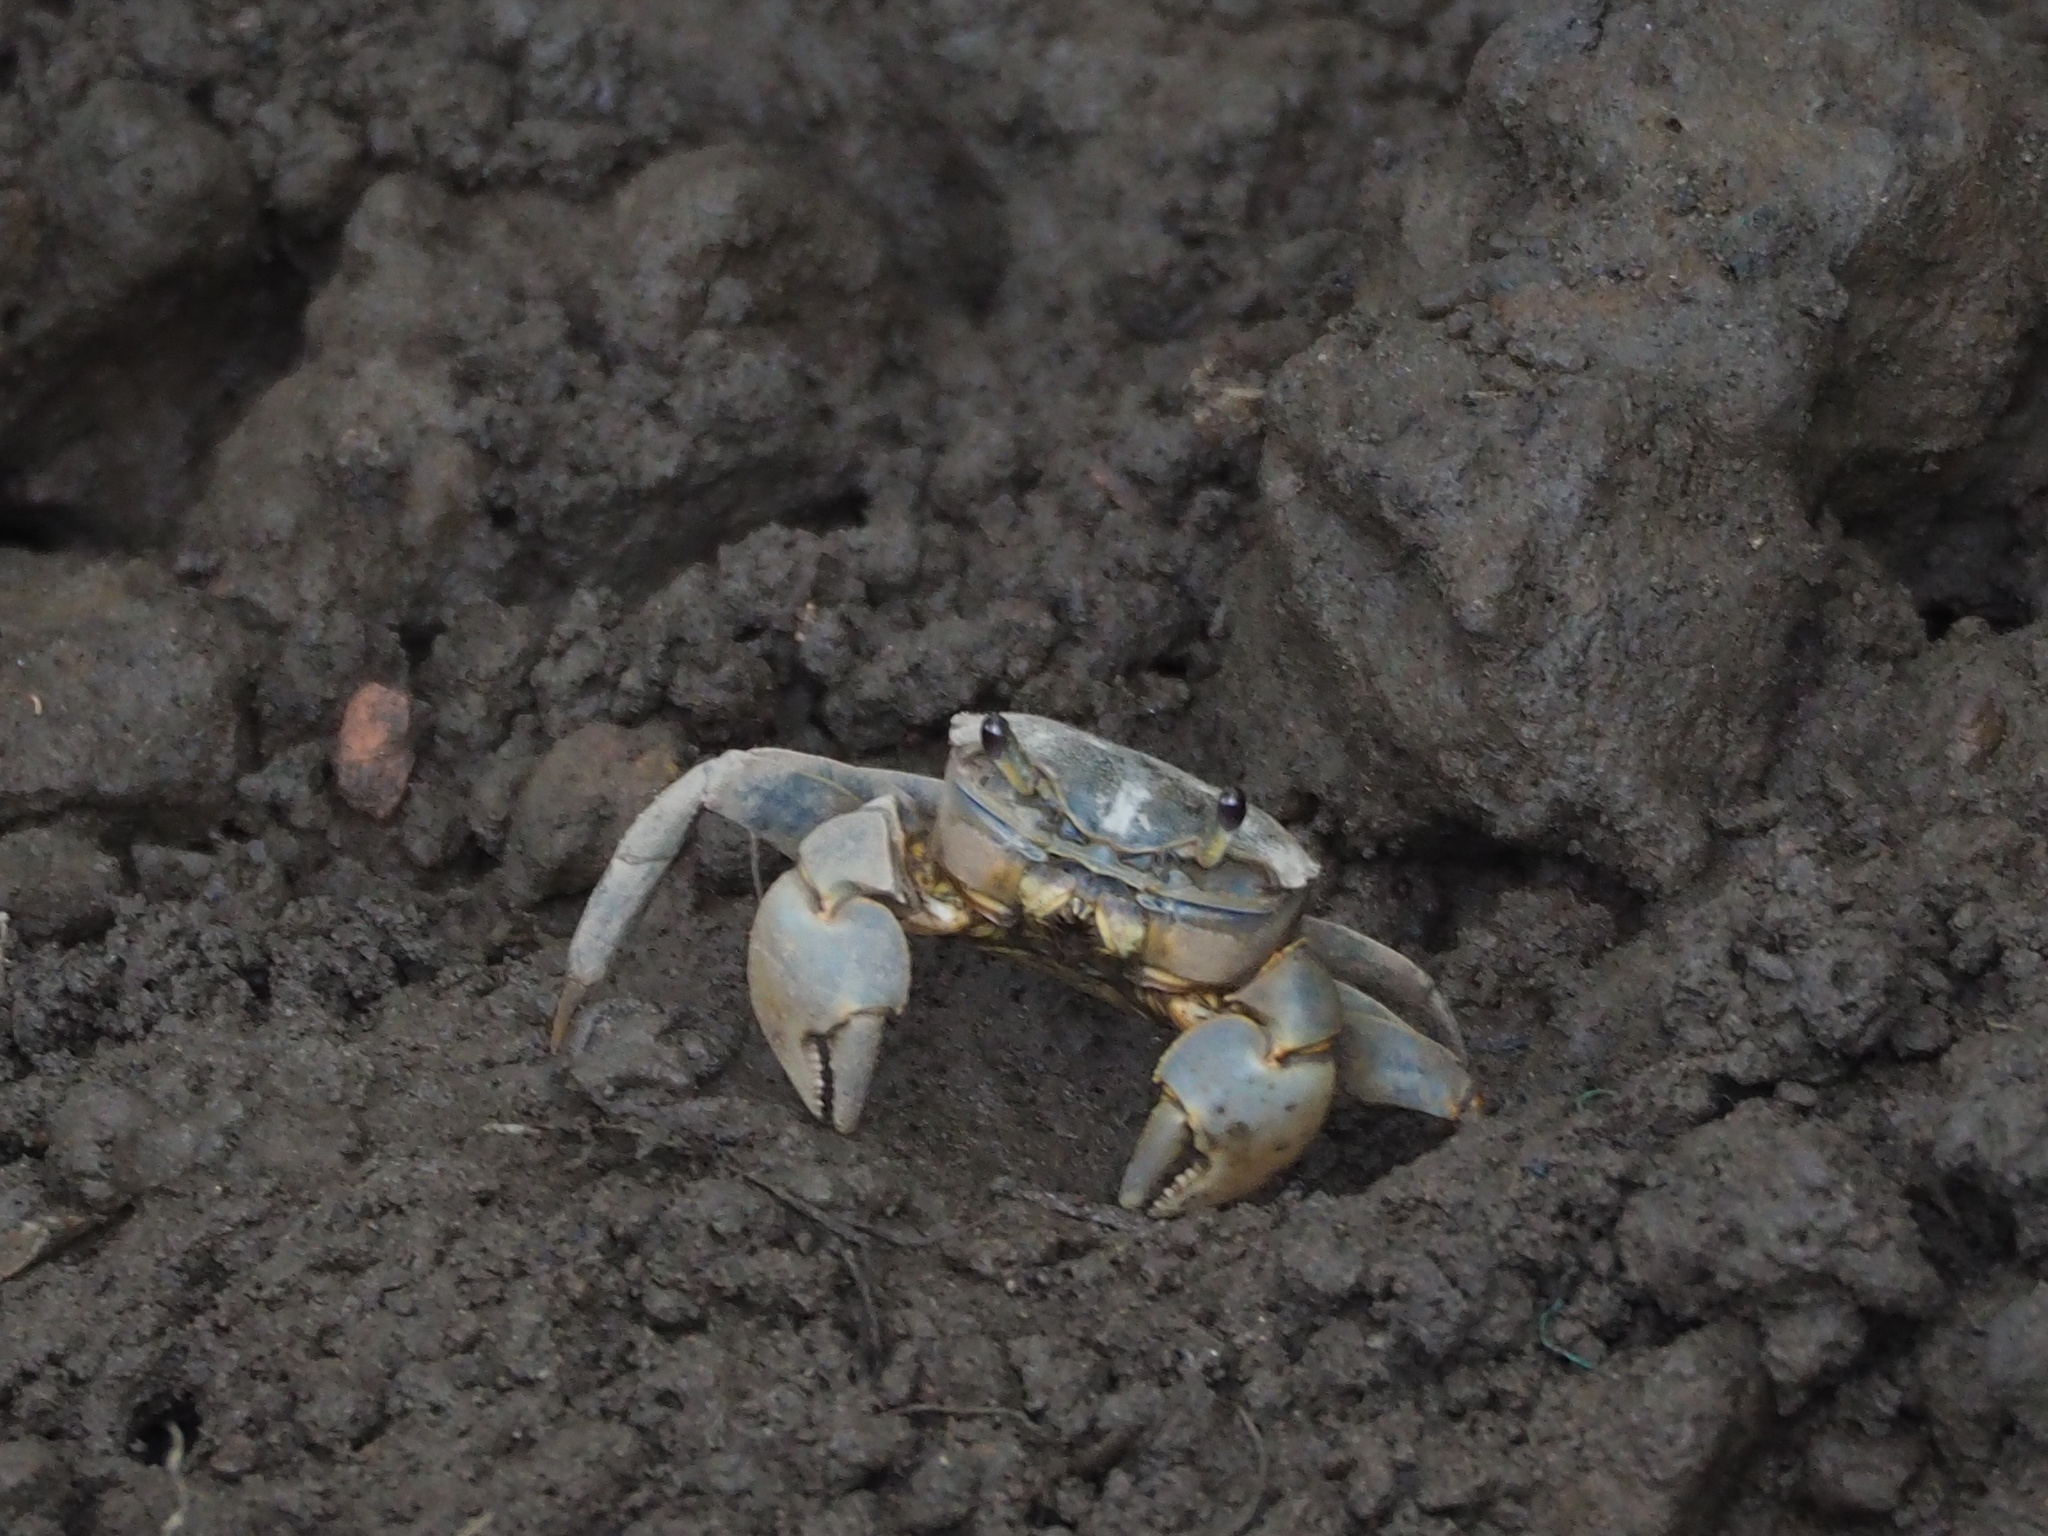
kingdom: Animalia
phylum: Arthropoda
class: Malacostraca
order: Decapoda
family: Varunidae
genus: Helice
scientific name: Helice formosensis
